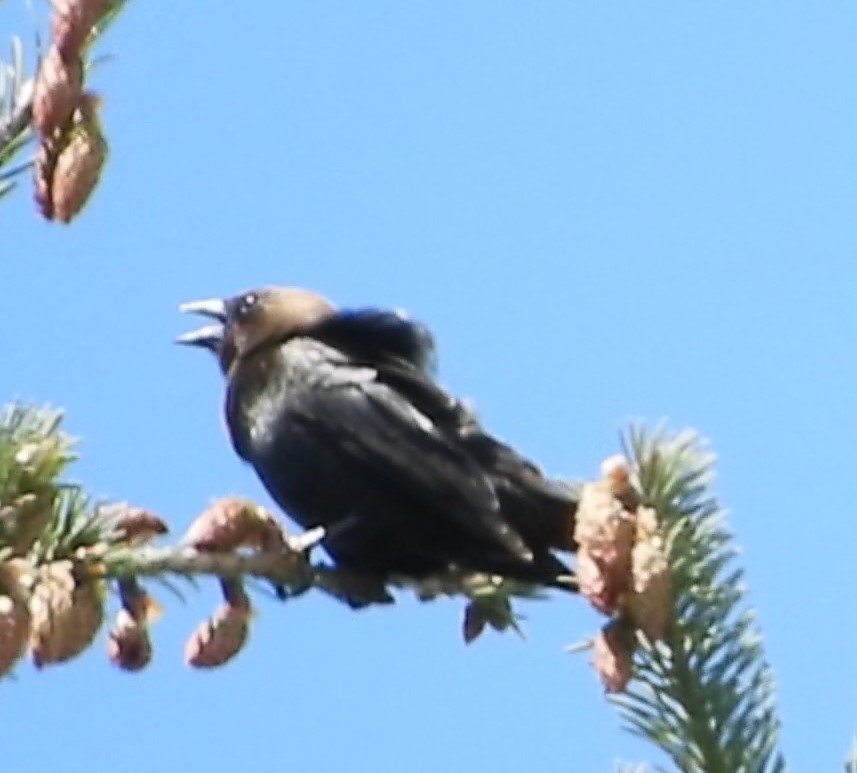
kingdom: Animalia
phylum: Chordata
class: Aves
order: Passeriformes
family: Icteridae
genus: Molothrus
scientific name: Molothrus ater
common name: Brown-headed cowbird
